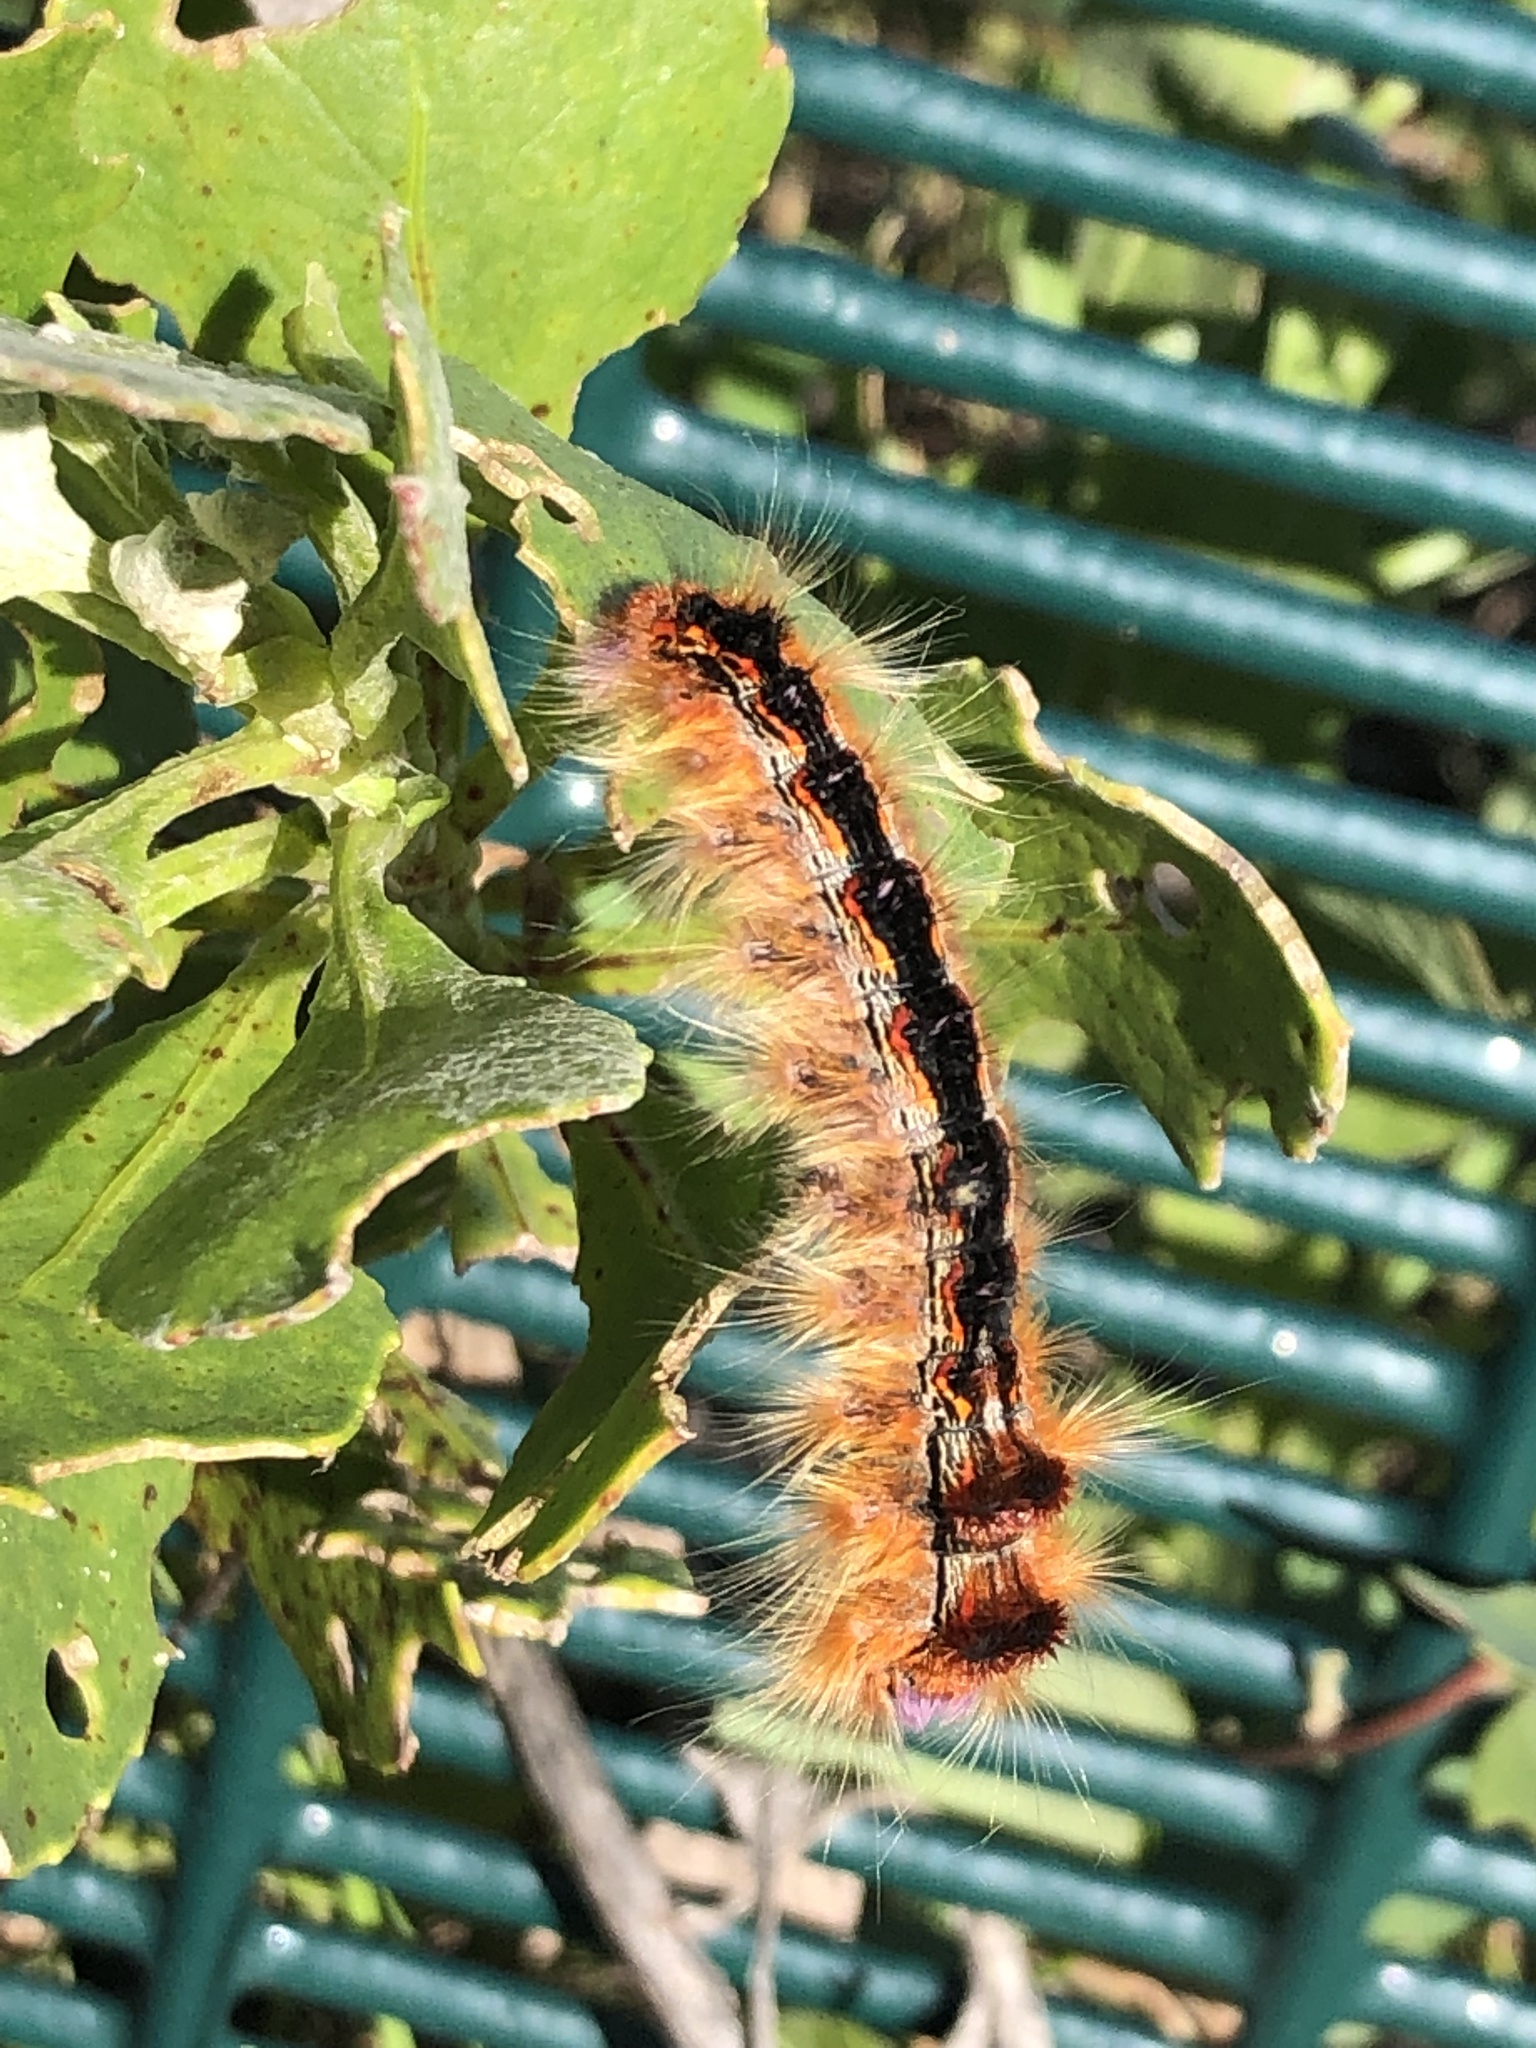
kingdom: Animalia
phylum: Arthropoda
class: Insecta
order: Lepidoptera
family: Lasiocampidae
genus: Eutricha
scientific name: Eutricha capensis
